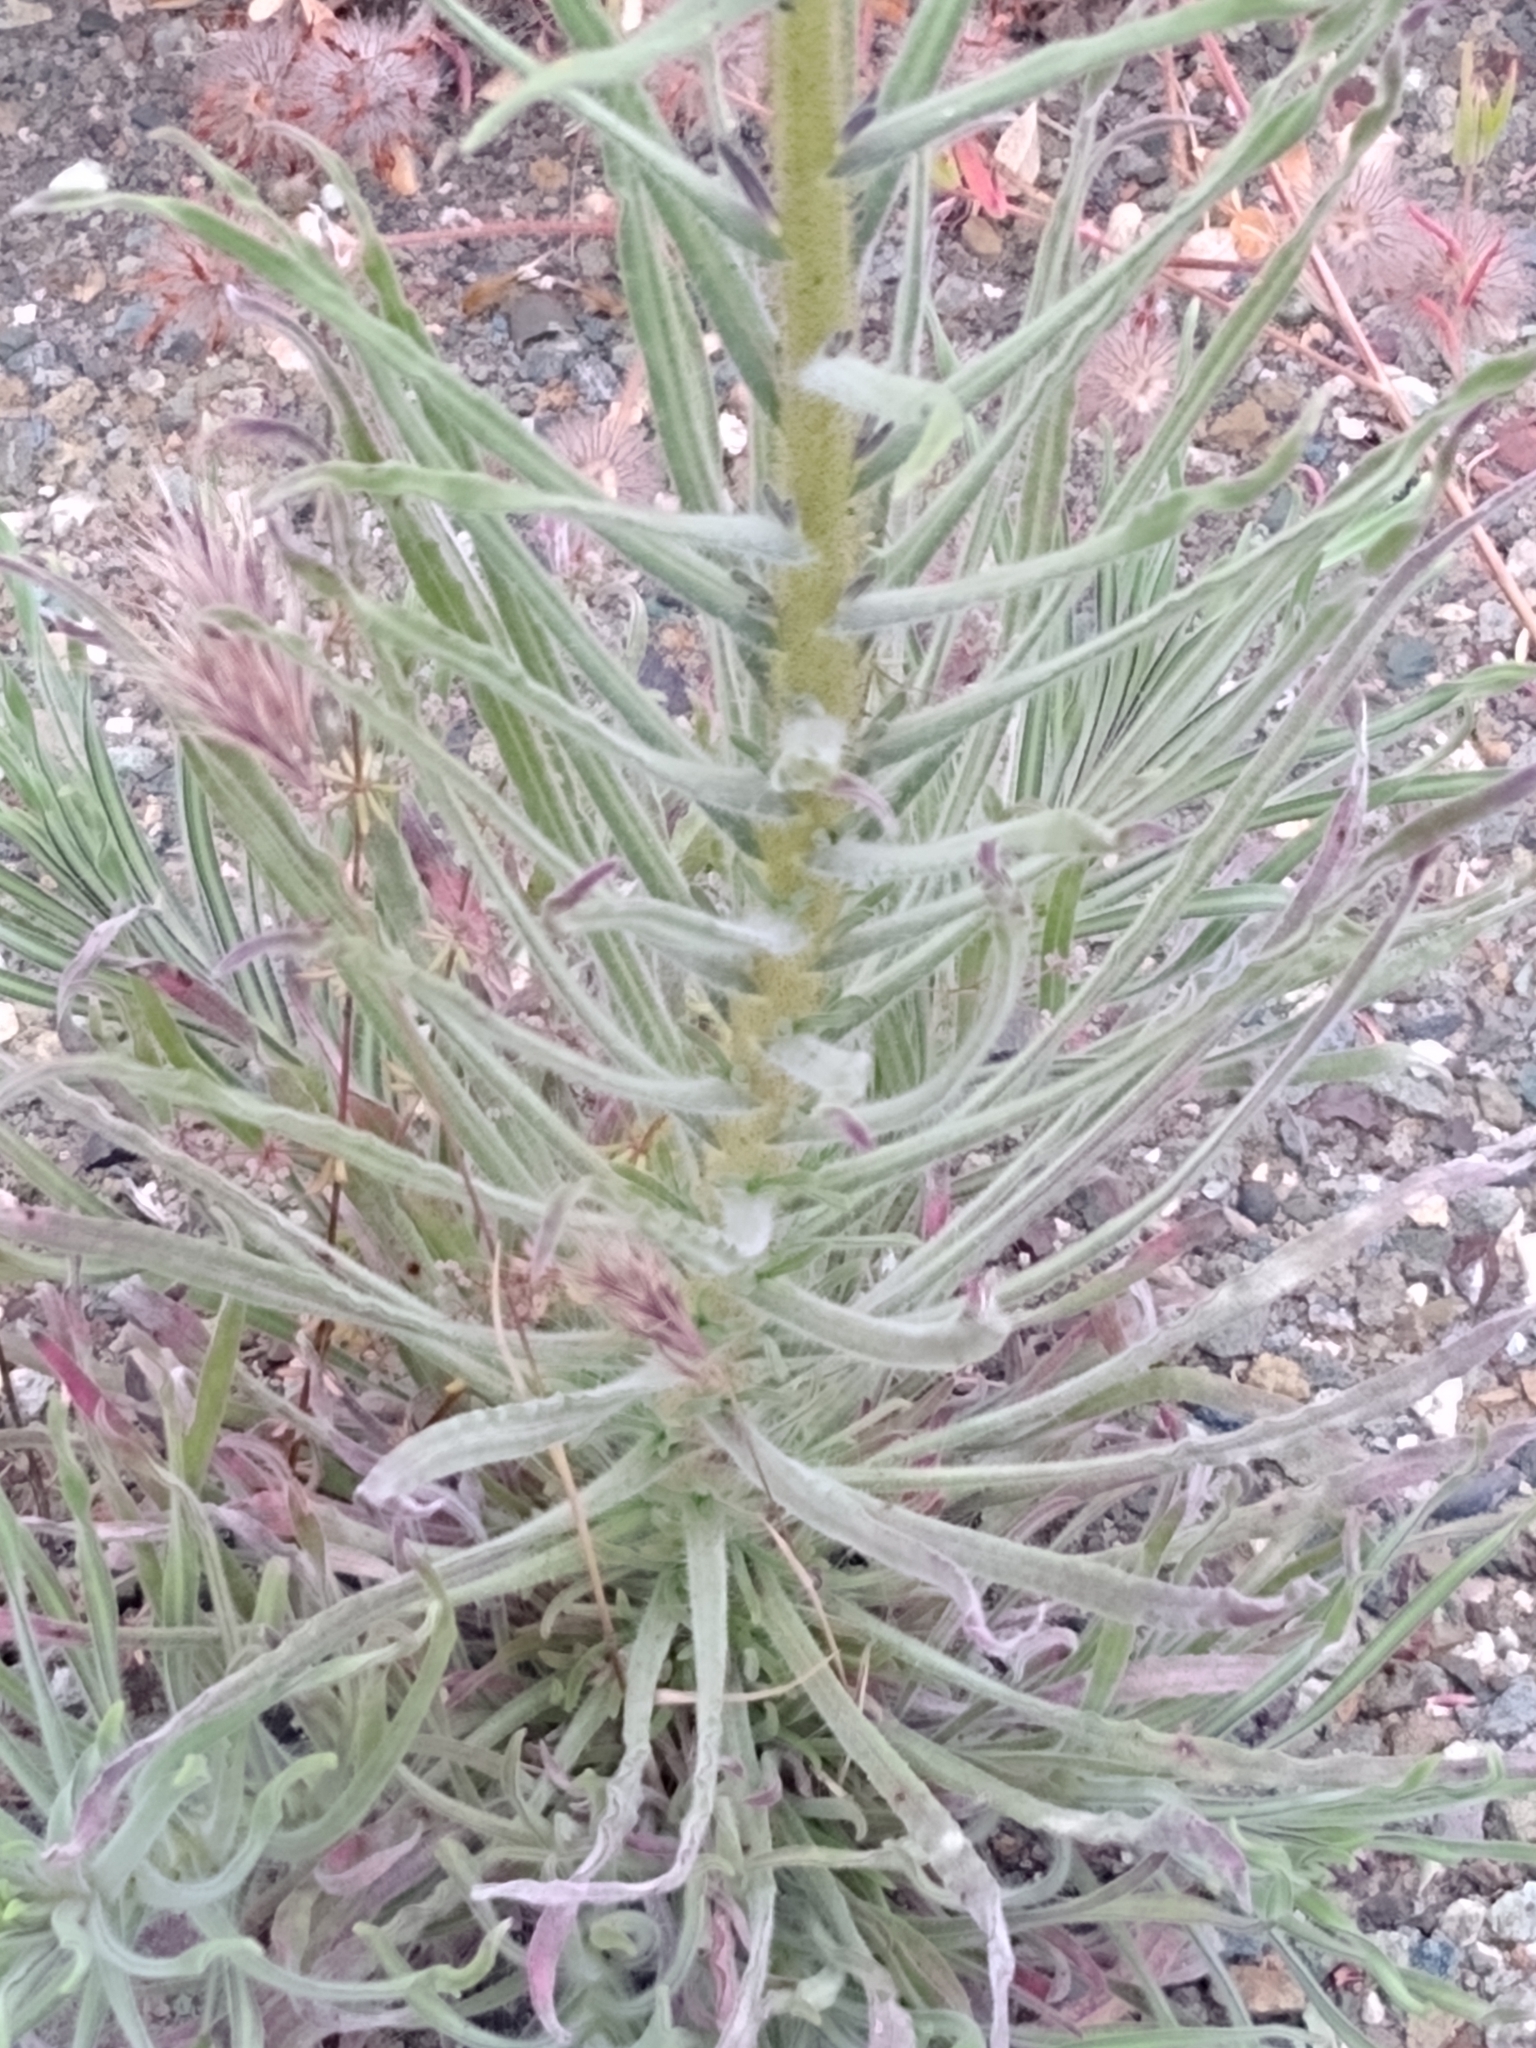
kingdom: Plantae
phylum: Tracheophyta
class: Magnoliopsida
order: Asterales
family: Asteraceae
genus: Madia
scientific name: Madia elegans
